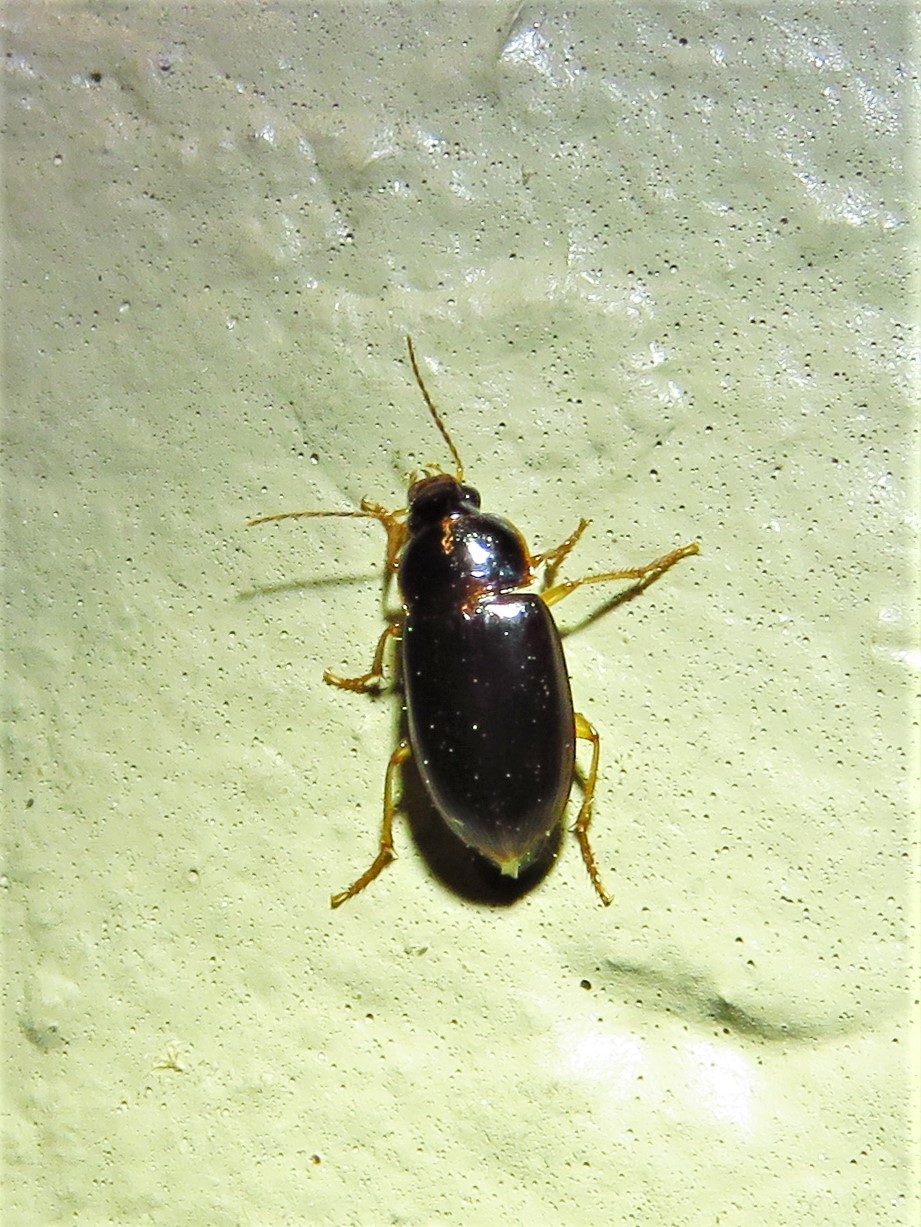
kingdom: Animalia
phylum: Arthropoda
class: Insecta
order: Coleoptera
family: Carabidae
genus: Notiobia
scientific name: Notiobia terminata
